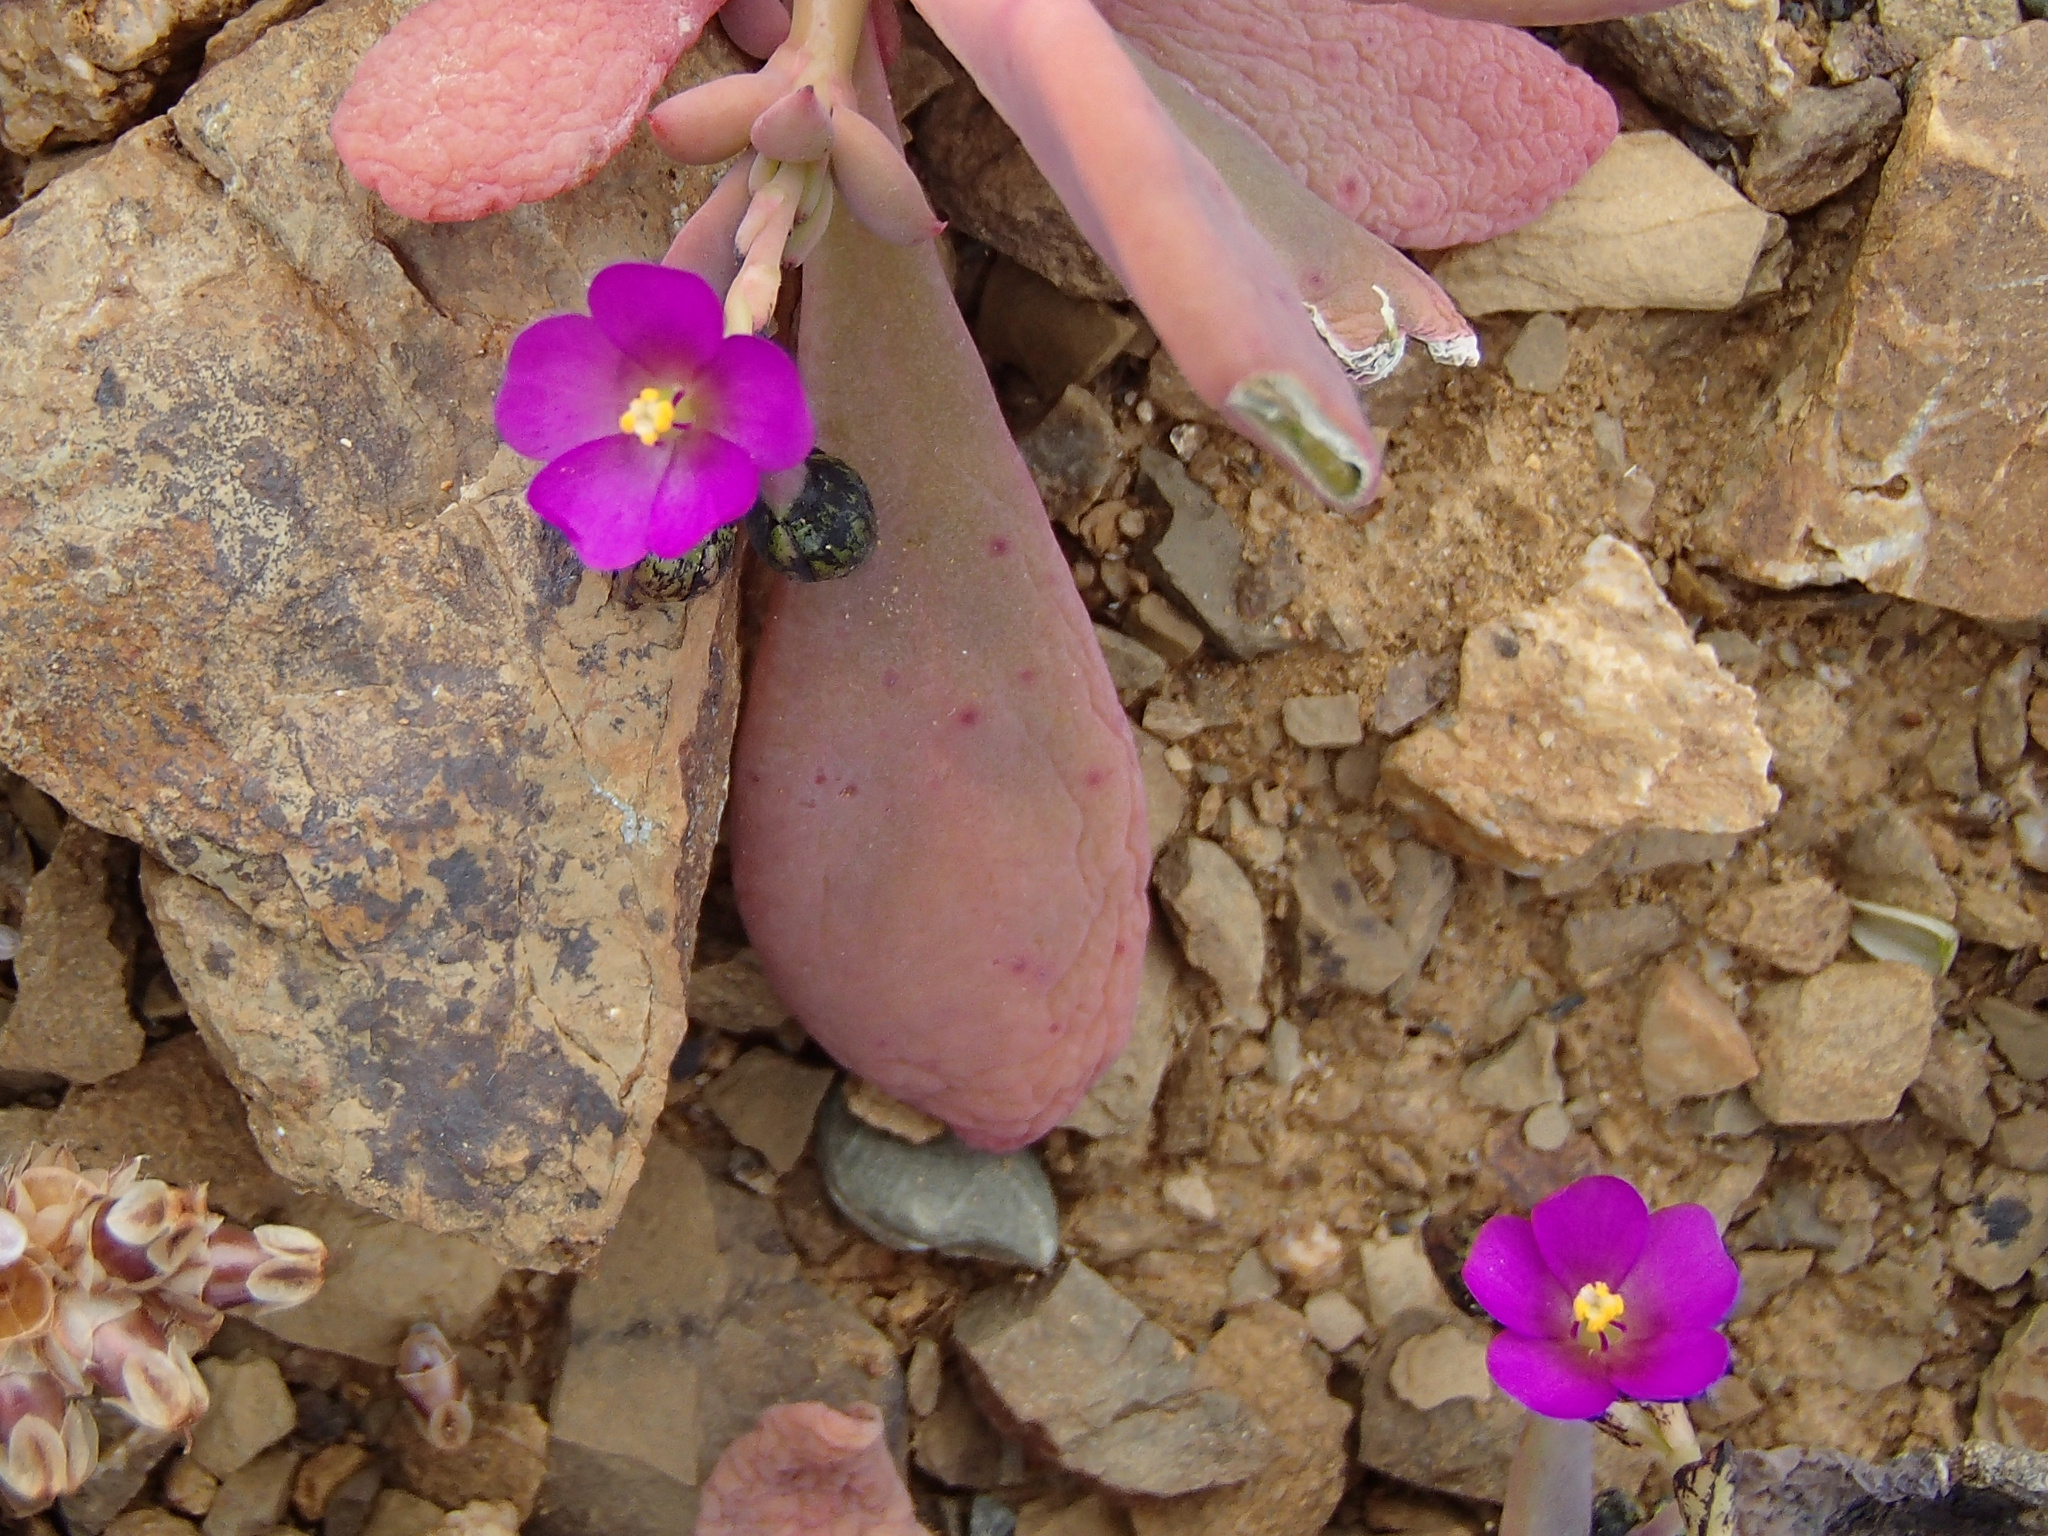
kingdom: Plantae
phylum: Tracheophyta
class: Magnoliopsida
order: Caryophyllales
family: Montiaceae
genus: Cistanthe
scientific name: Cistanthe maritima
